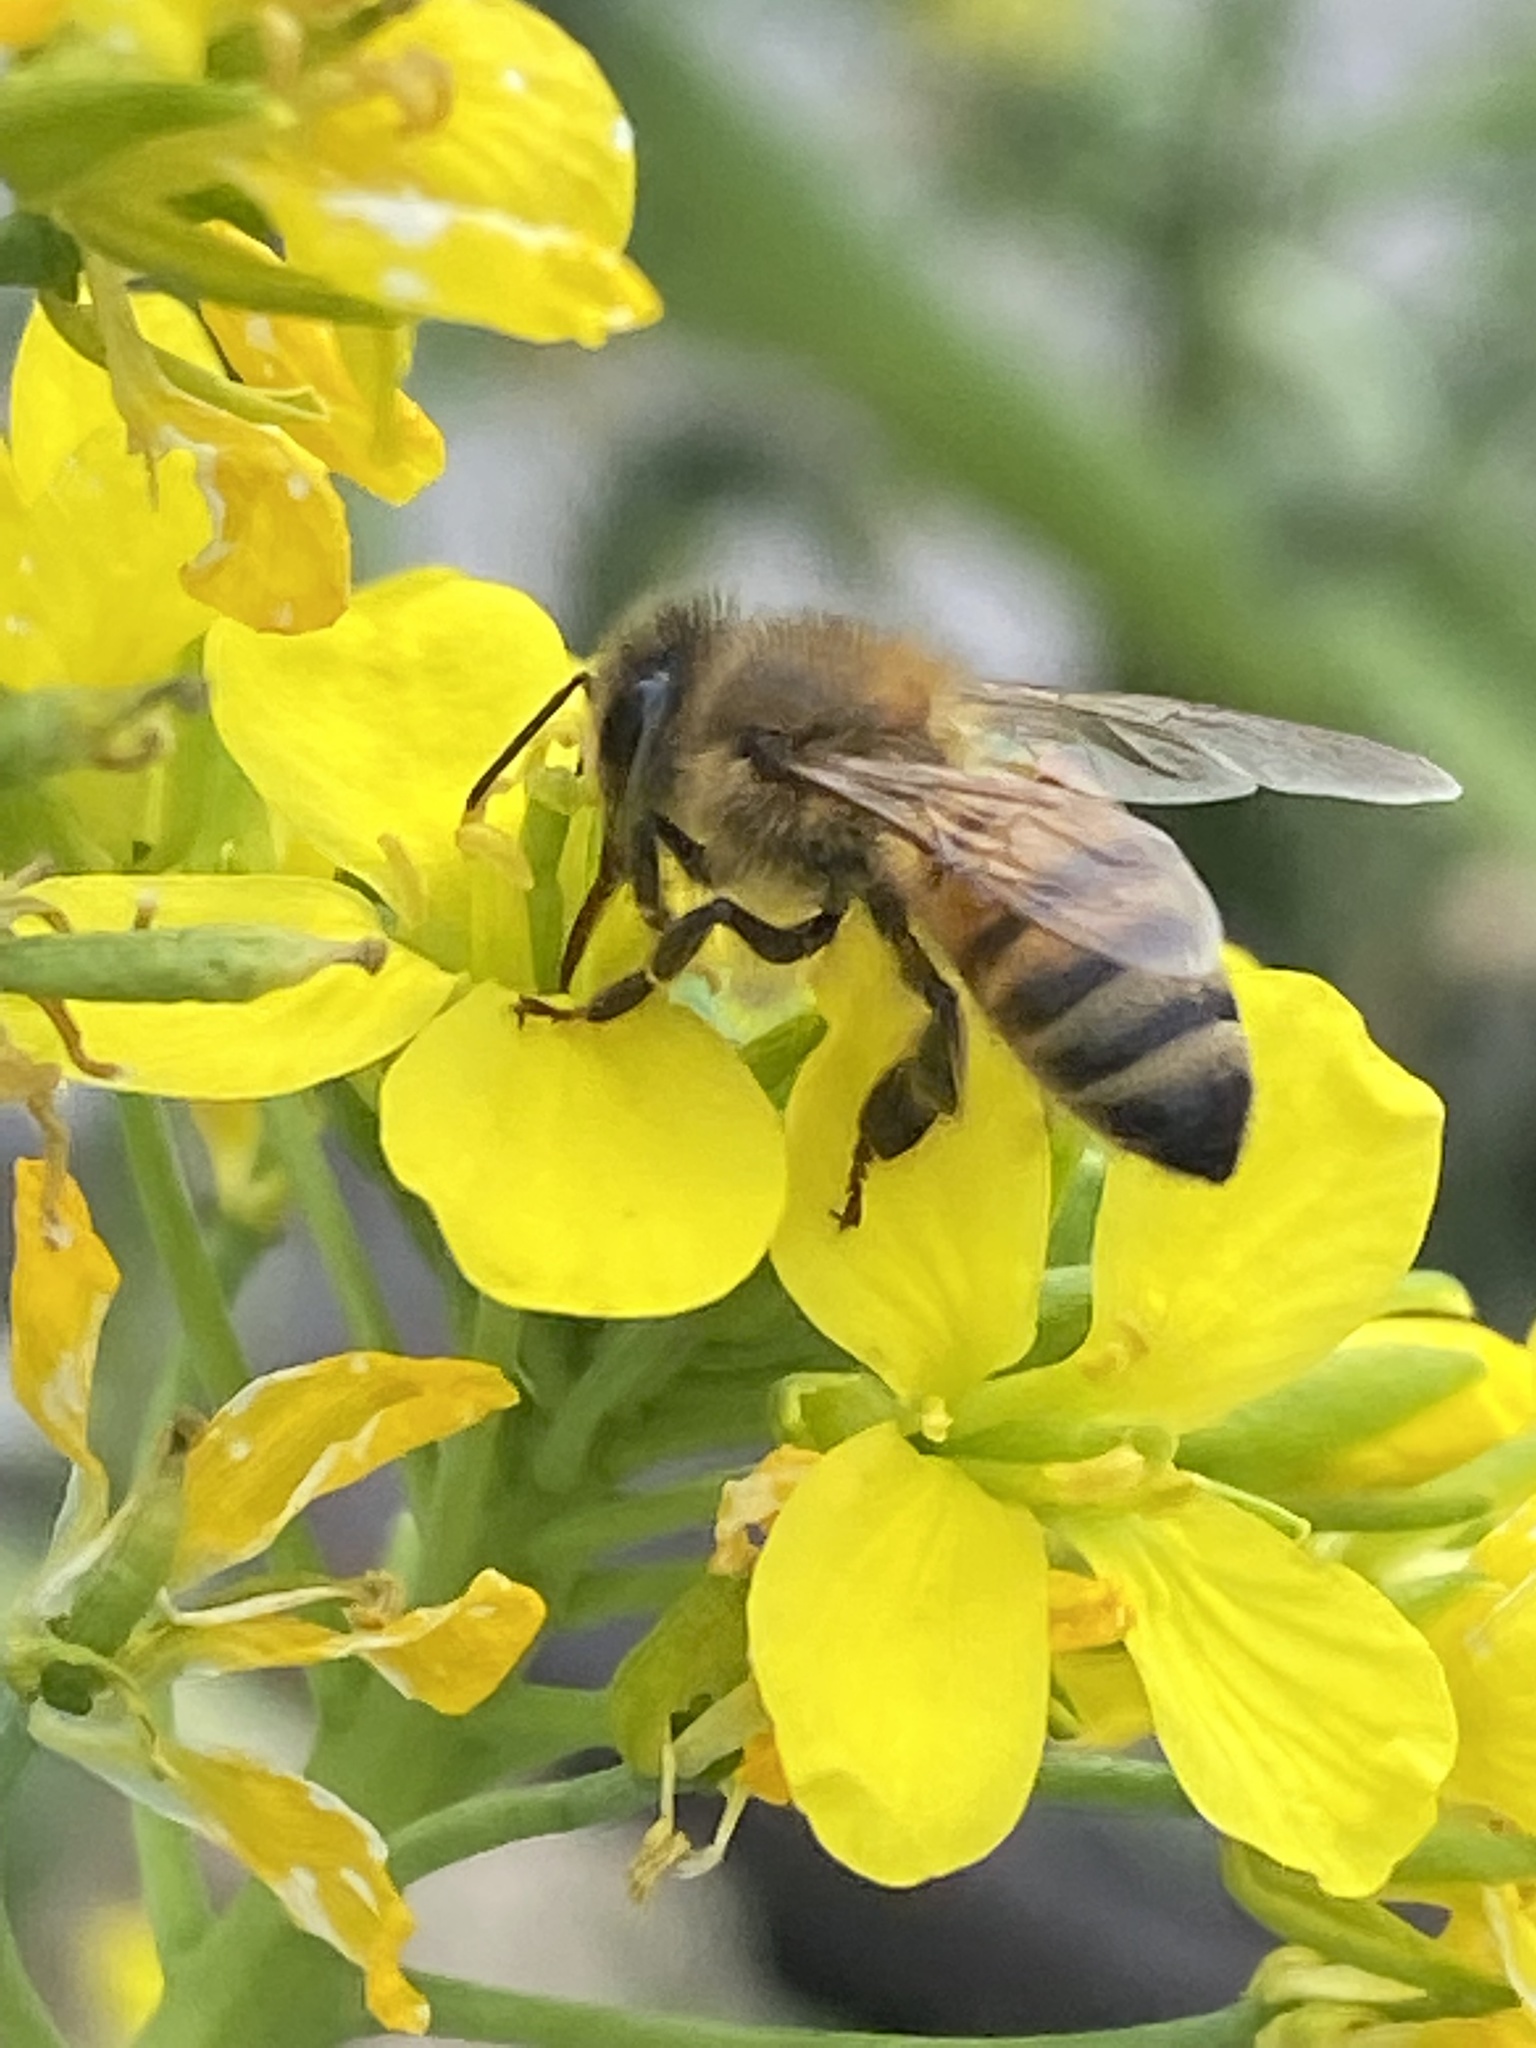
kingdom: Animalia
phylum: Arthropoda
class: Insecta
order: Hymenoptera
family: Apidae
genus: Apis
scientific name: Apis mellifera
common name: Honey bee
